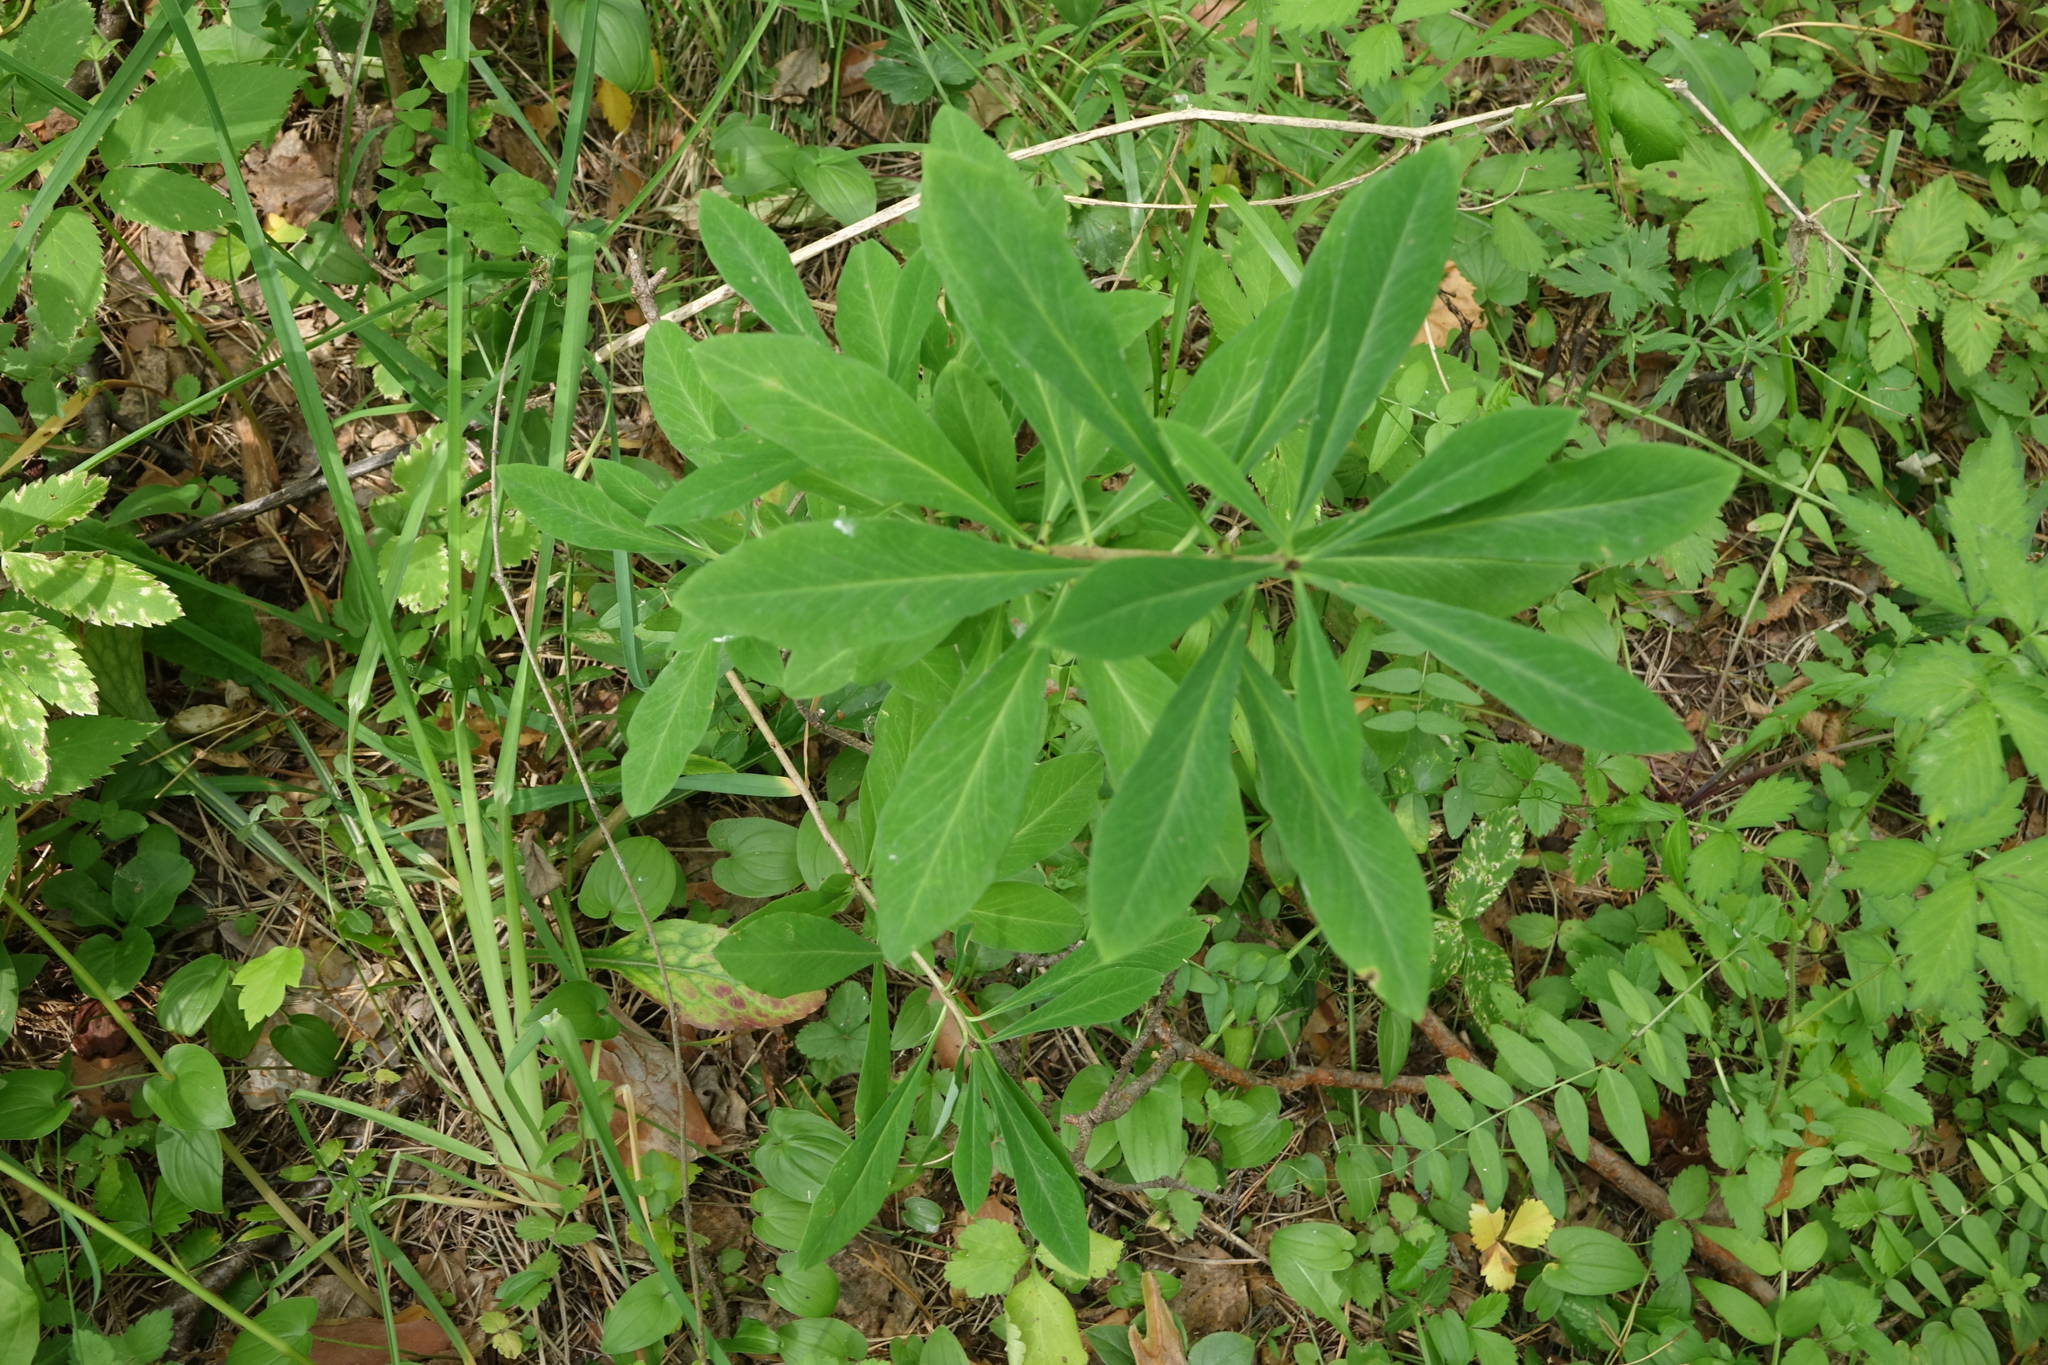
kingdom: Plantae
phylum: Tracheophyta
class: Magnoliopsida
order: Malvales
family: Thymelaeaceae
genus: Daphne
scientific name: Daphne mezereum
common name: Mezereon
